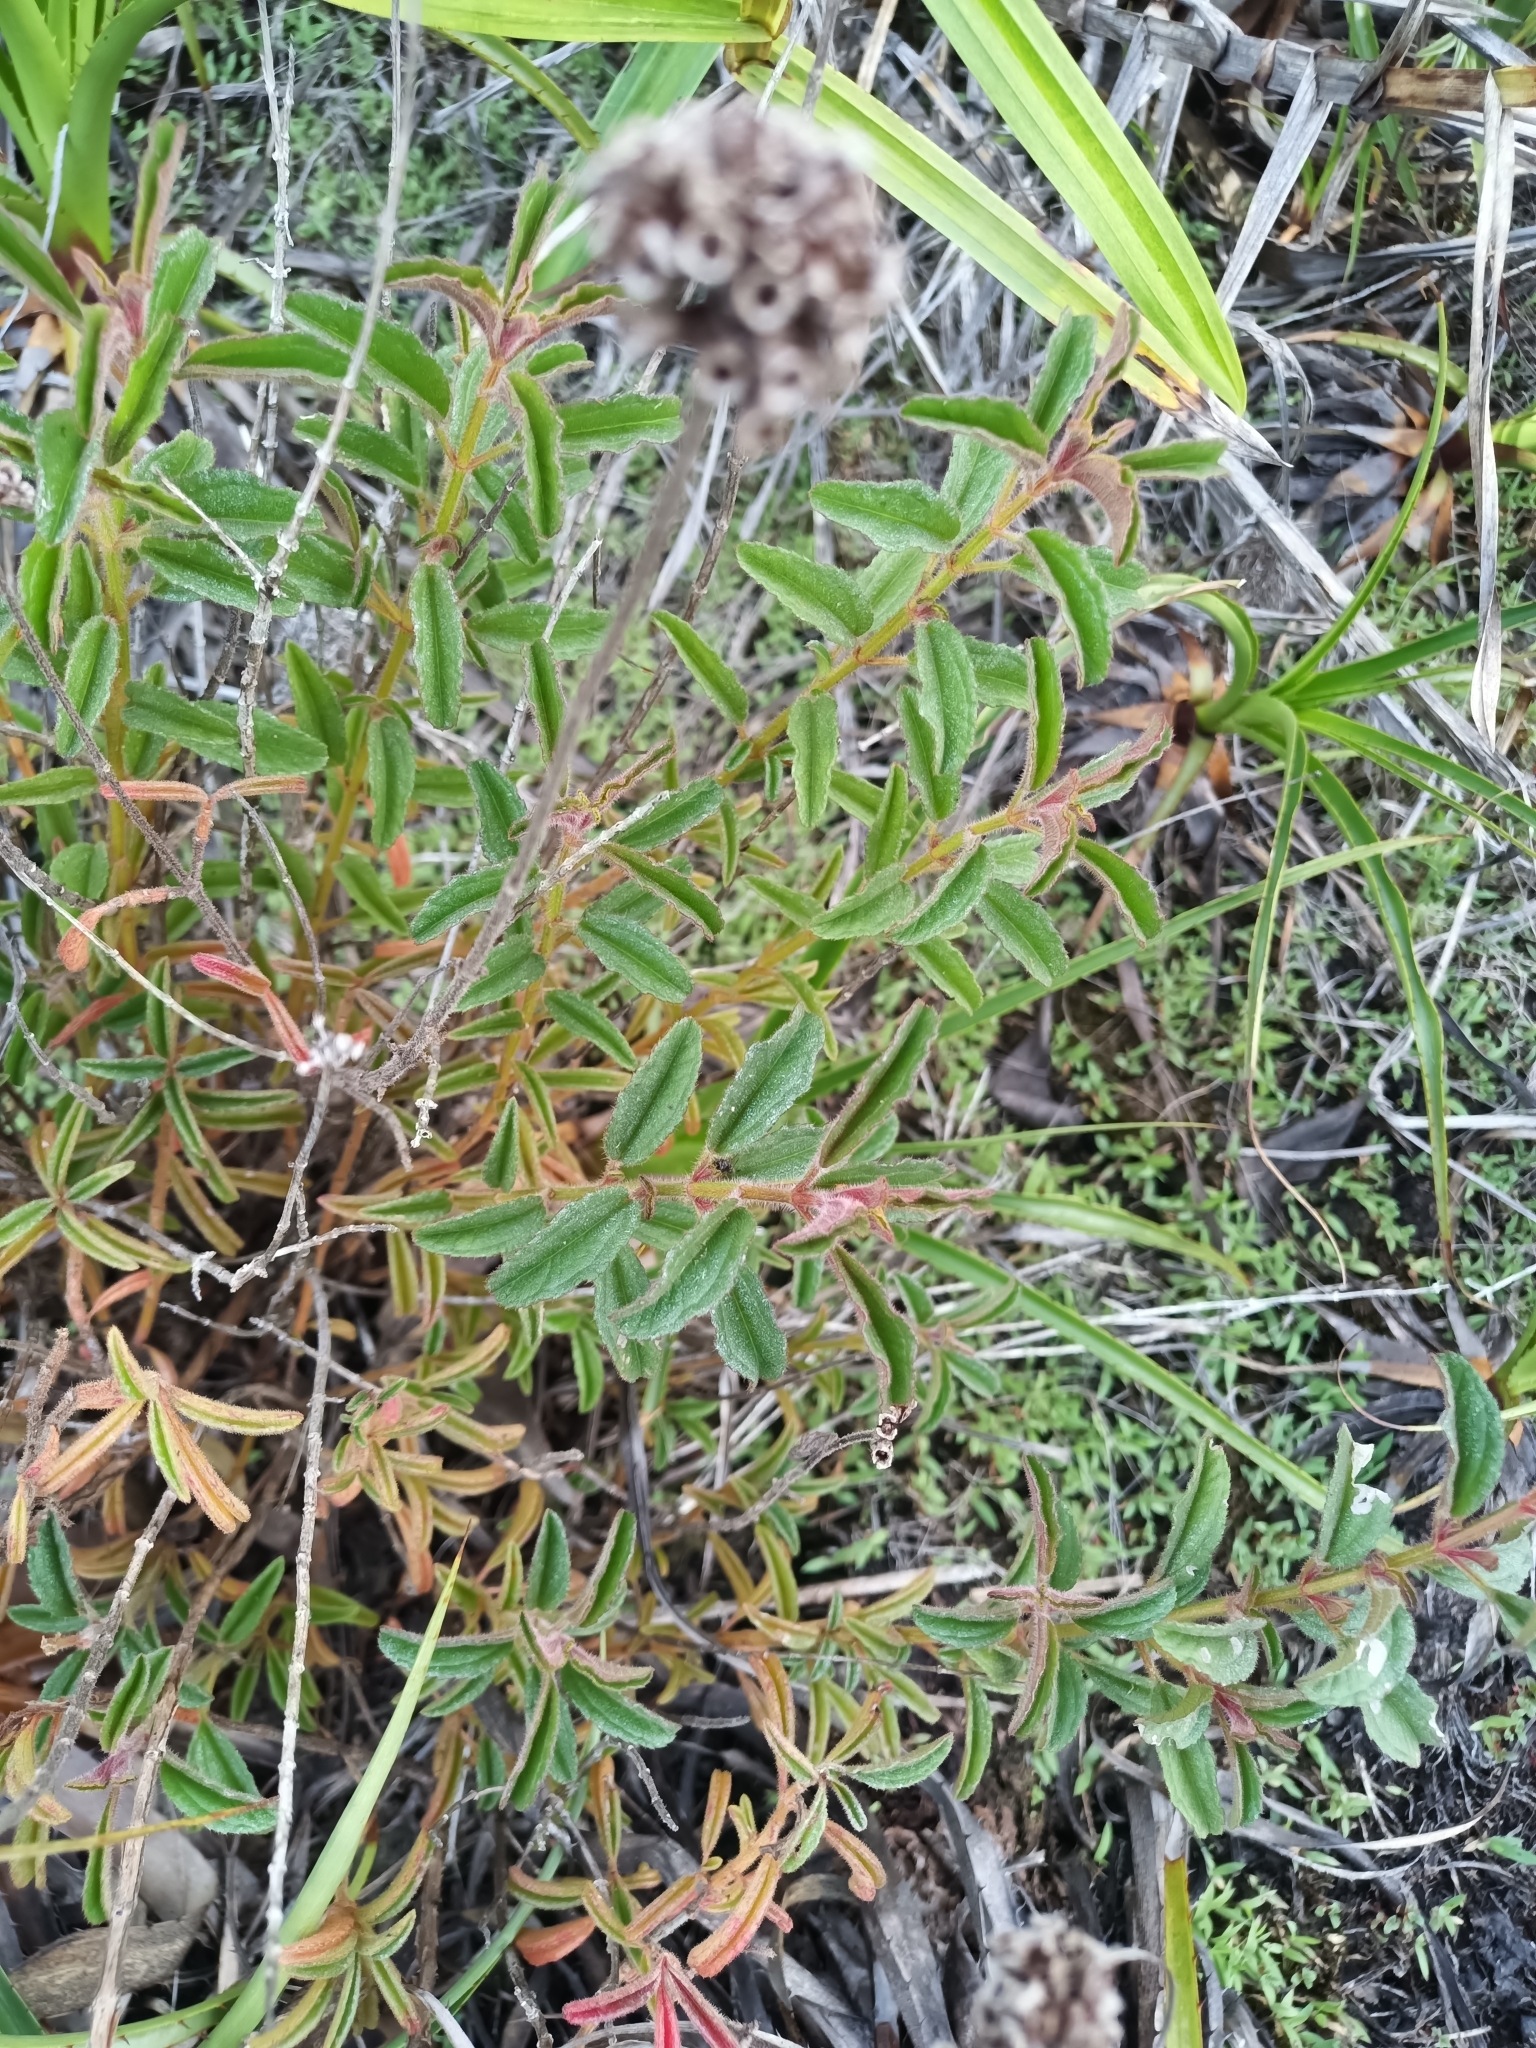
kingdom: Plantae
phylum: Tracheophyta
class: Magnoliopsida
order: Myrtales
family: Melastomataceae
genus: Ernestia
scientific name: Ernestia confertiflora
